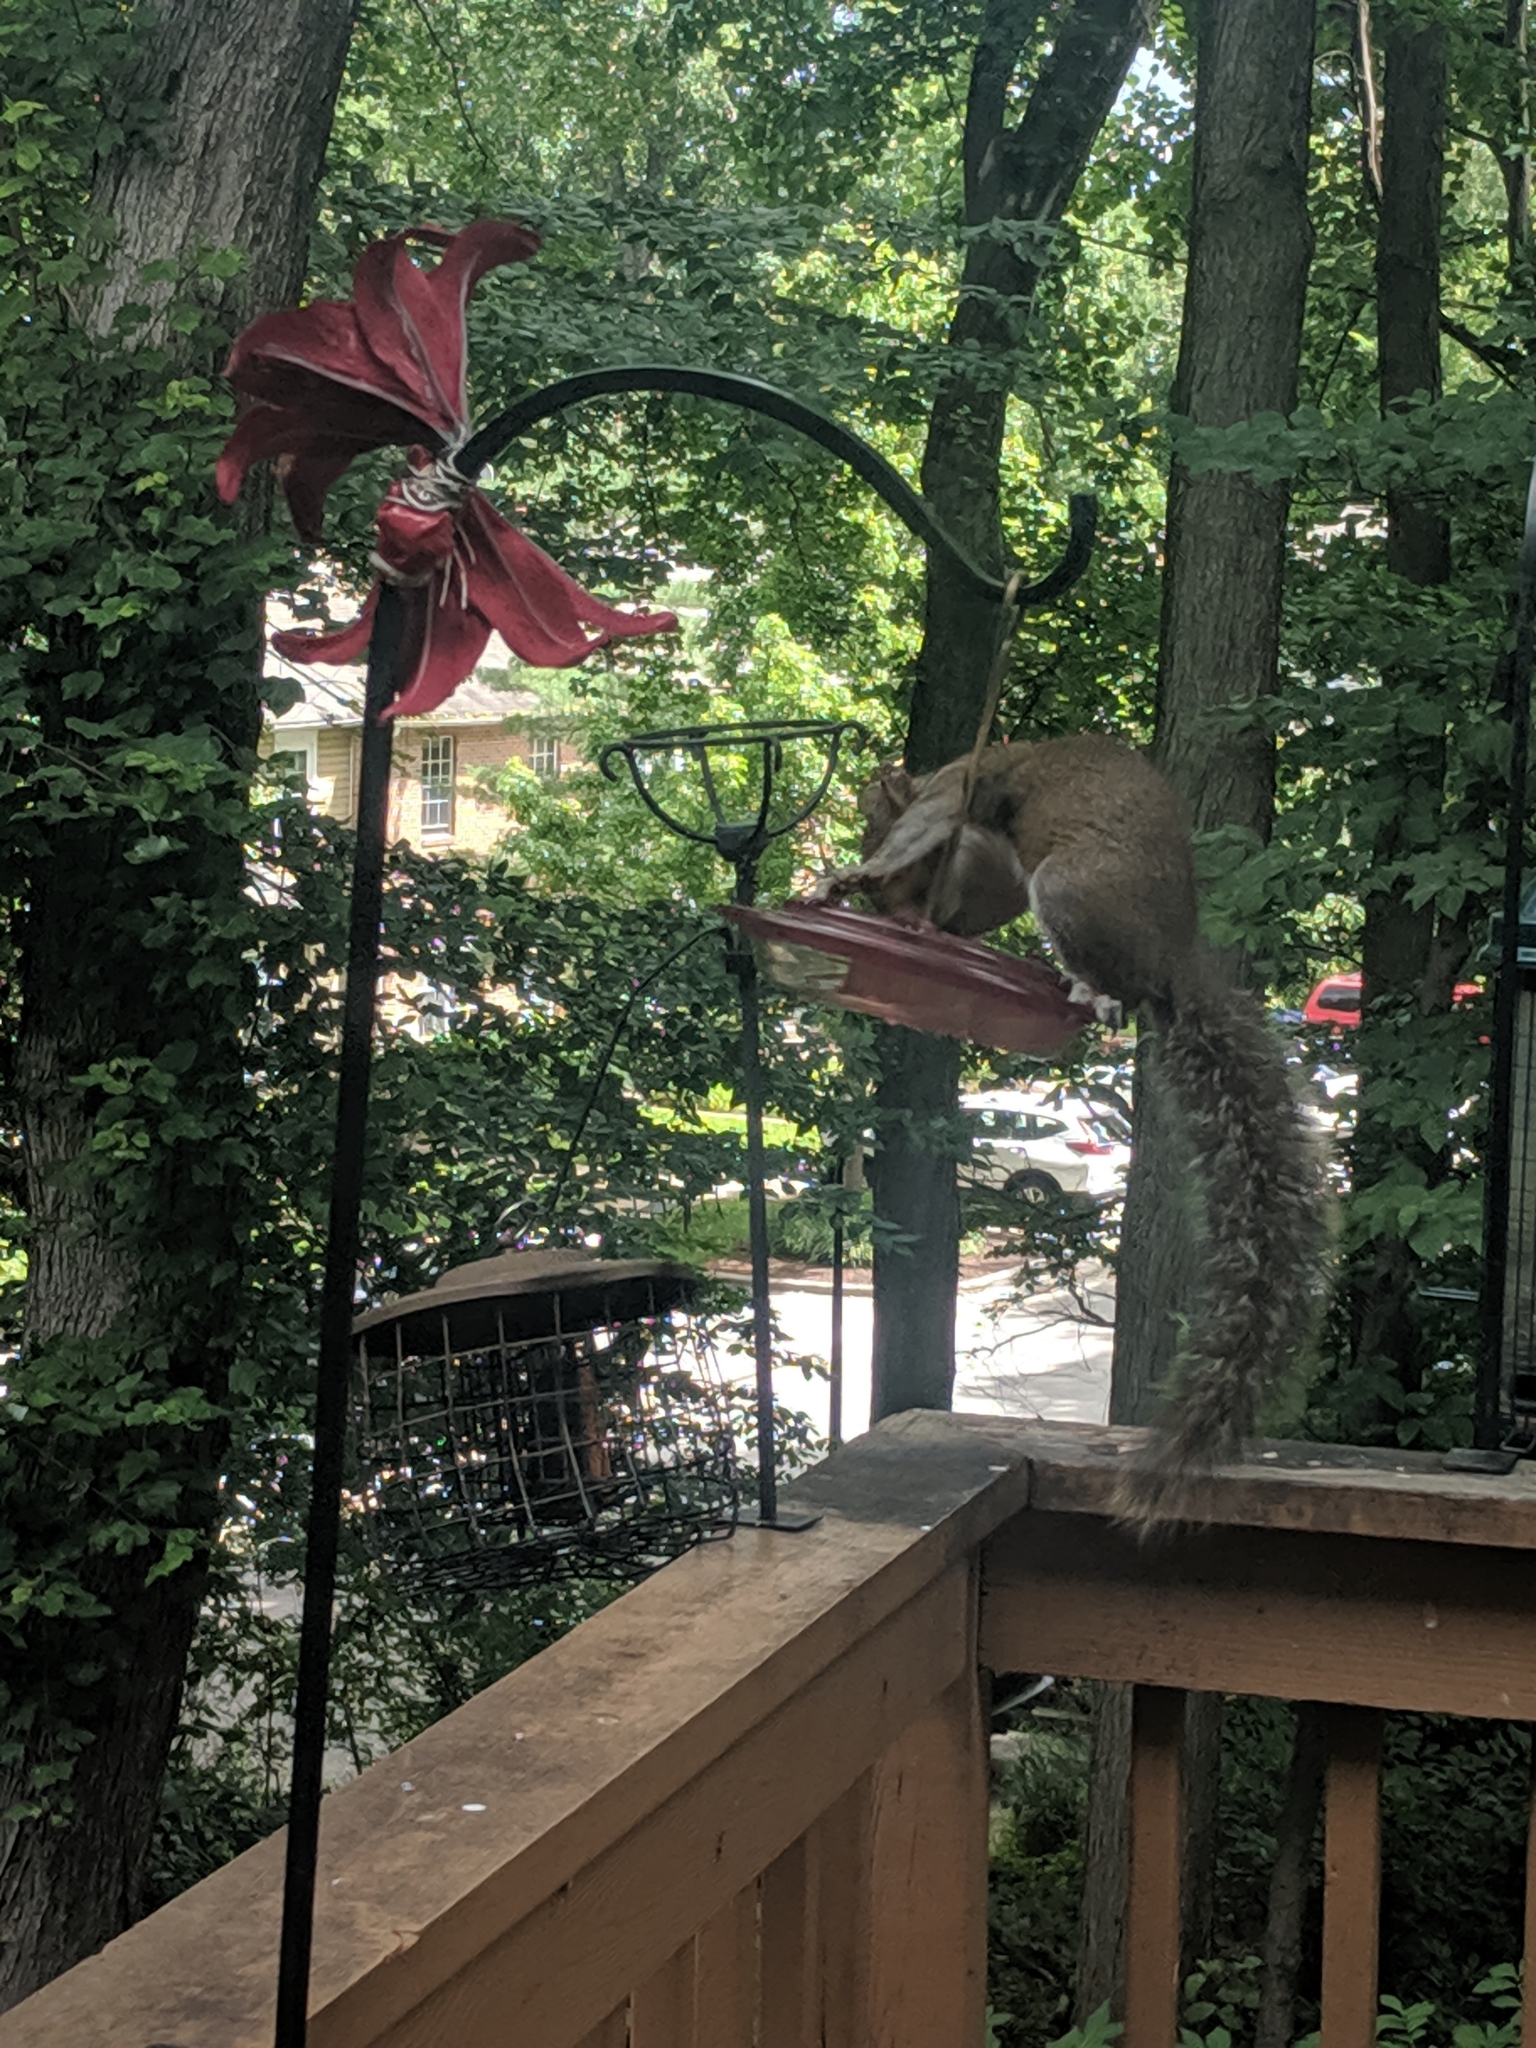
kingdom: Animalia
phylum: Chordata
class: Mammalia
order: Rodentia
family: Sciuridae
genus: Sciurus
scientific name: Sciurus carolinensis
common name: Eastern gray squirrel
